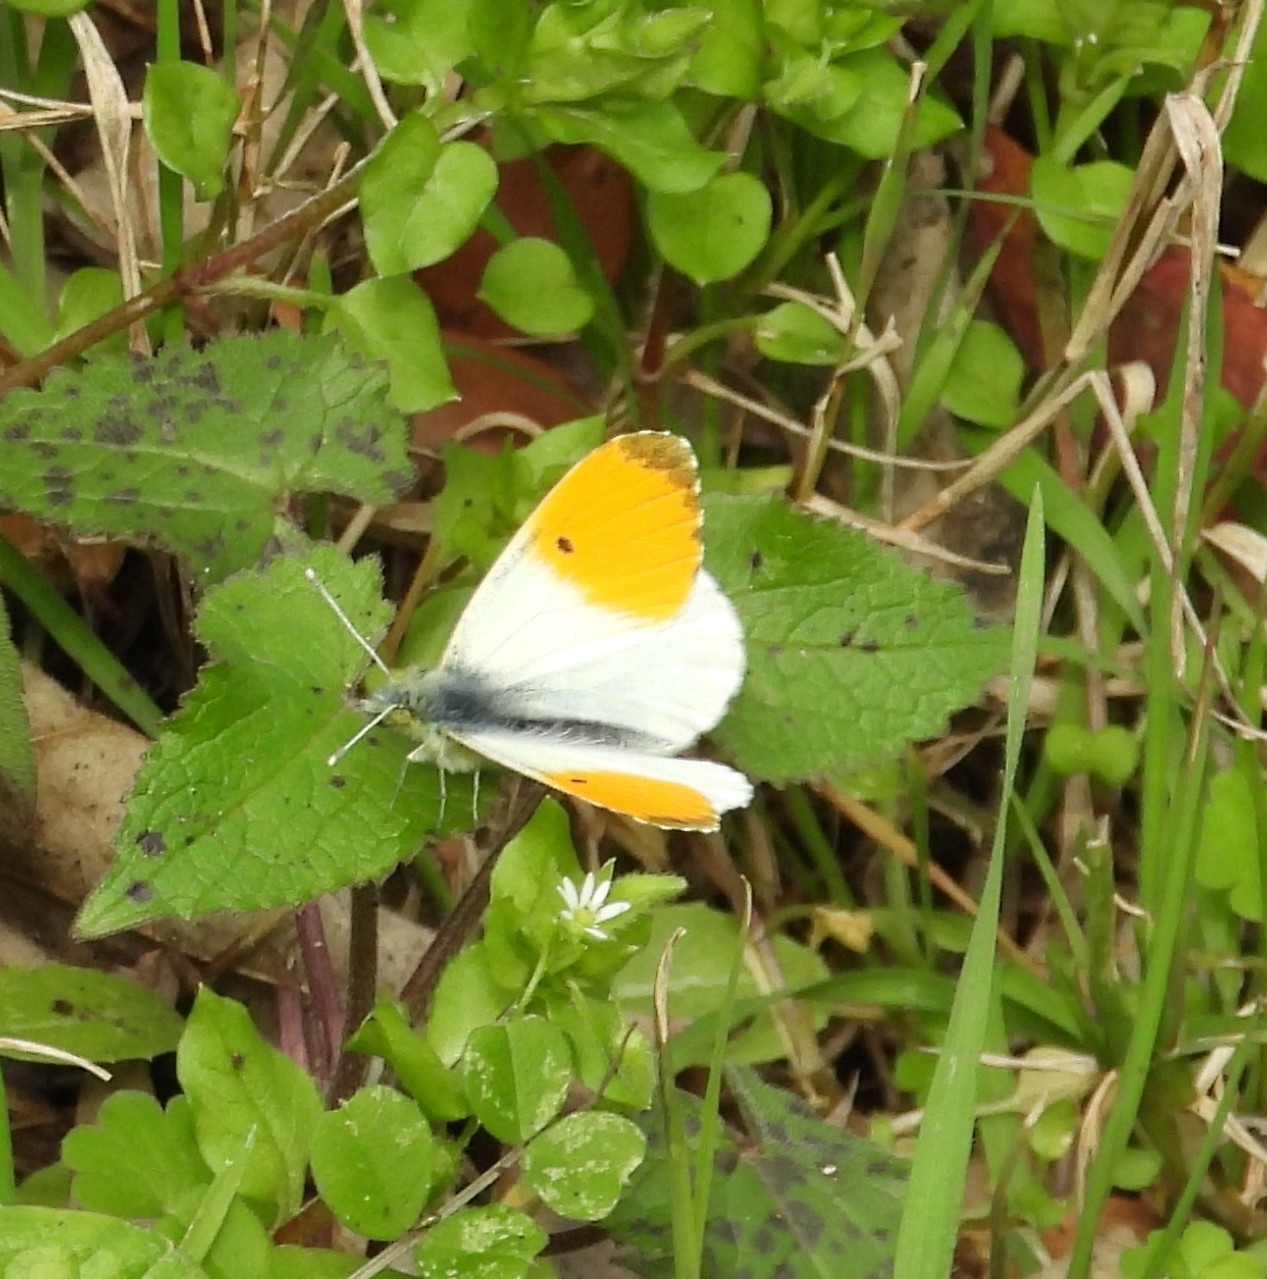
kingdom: Animalia
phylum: Arthropoda
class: Insecta
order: Lepidoptera
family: Pieridae
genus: Anthocharis
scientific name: Anthocharis cardamines
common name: Orange-tip
